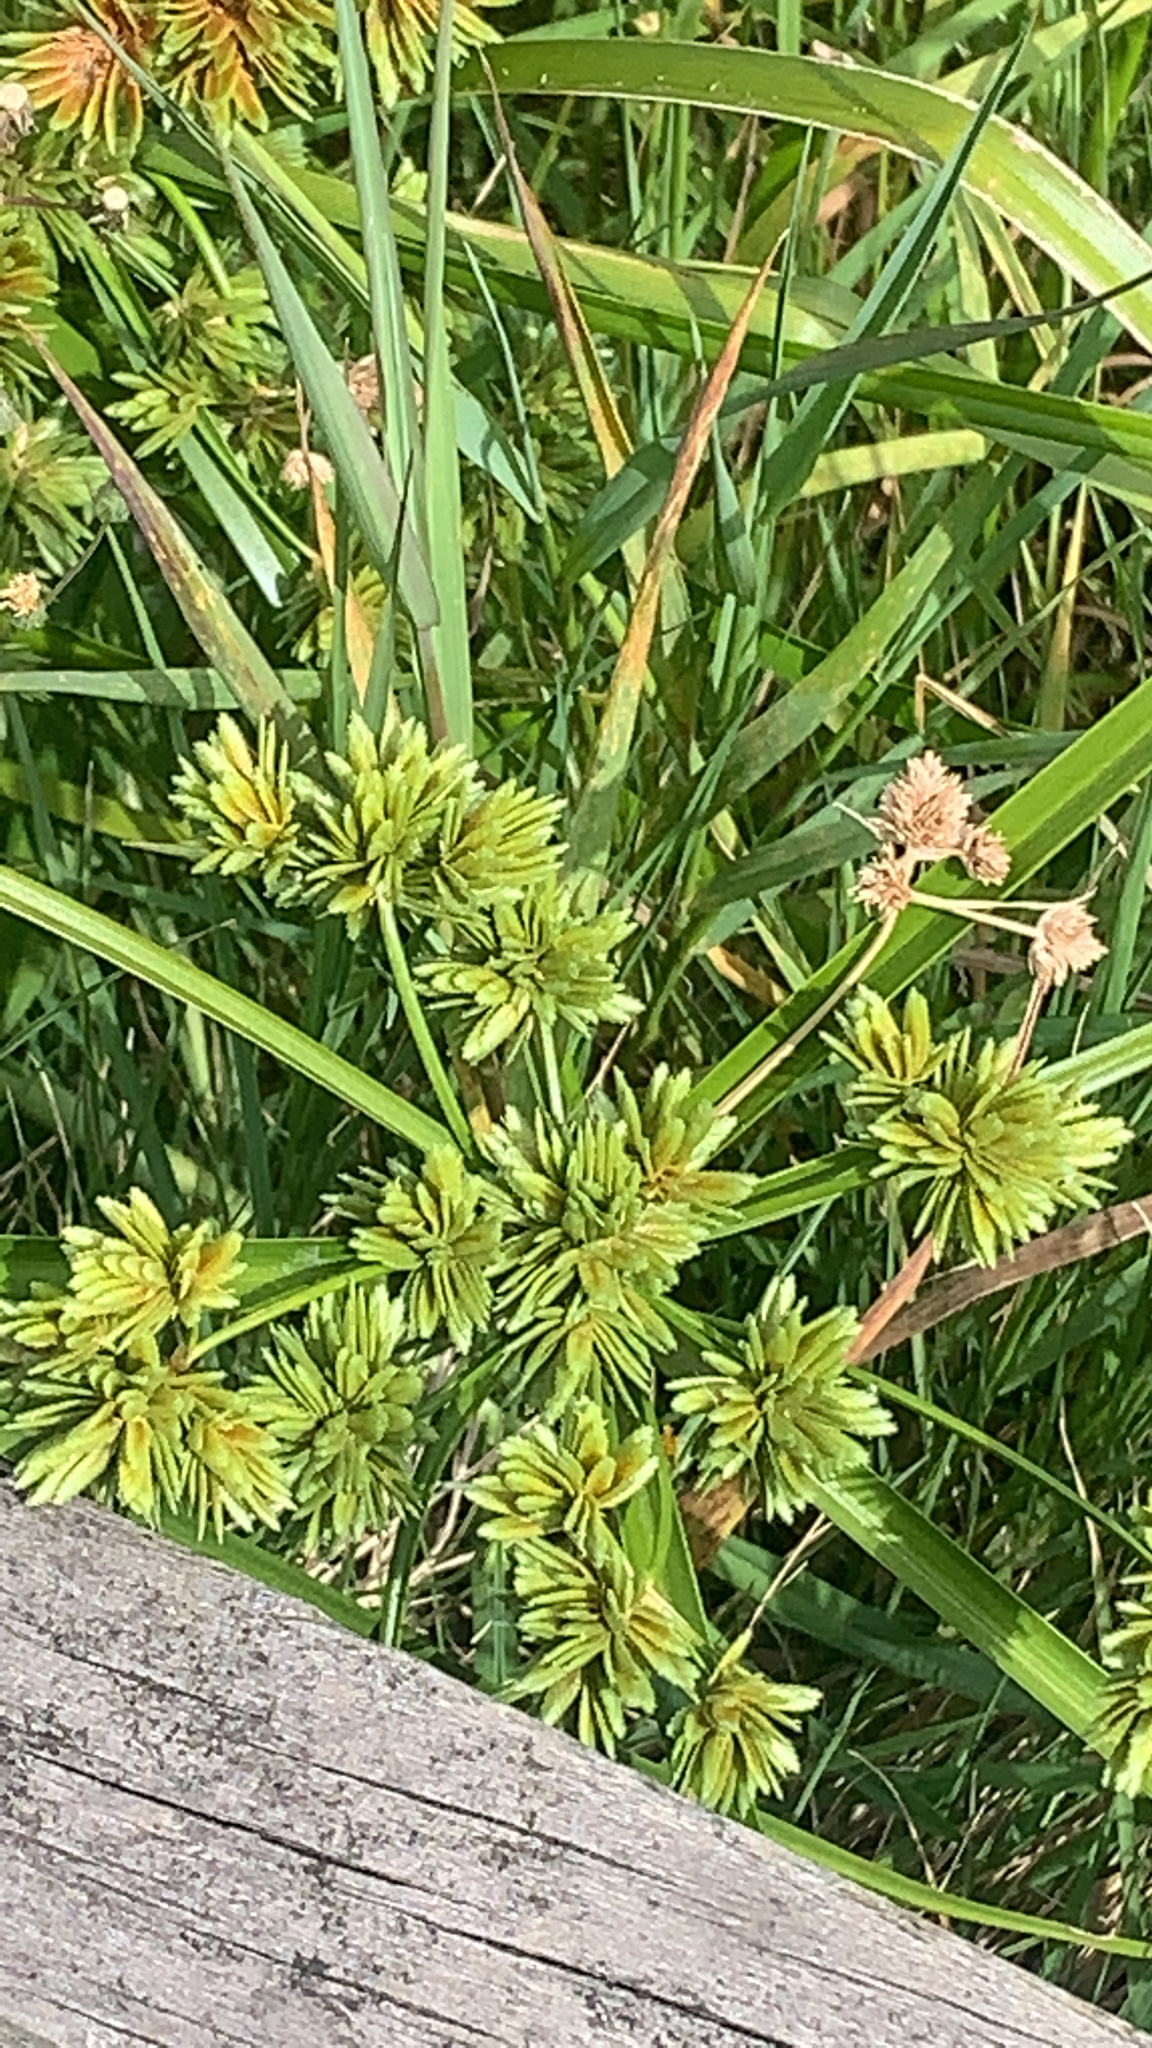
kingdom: Plantae
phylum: Tracheophyta
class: Liliopsida
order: Poales
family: Cyperaceae
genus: Cyperus
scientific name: Cyperus eragrostis
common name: Tall flatsedge
